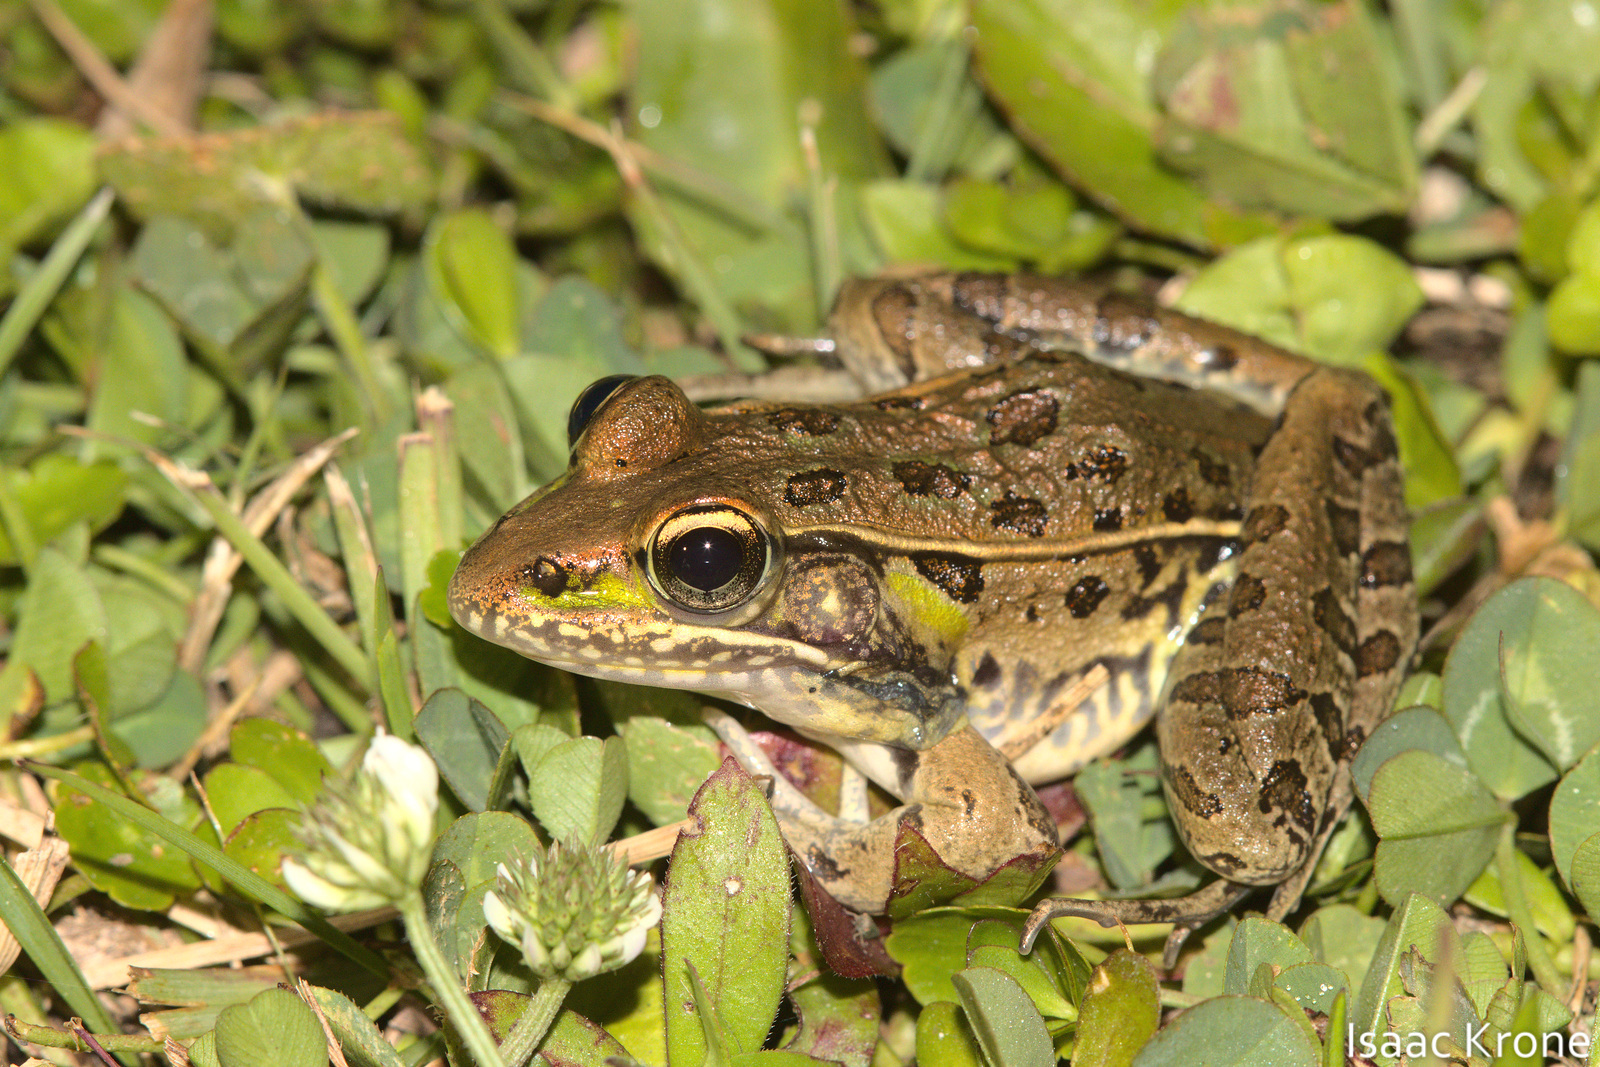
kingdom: Animalia
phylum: Chordata
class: Amphibia
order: Anura
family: Ranidae
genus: Lithobates
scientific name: Lithobates sphenocephalus
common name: Southern leopard frog
